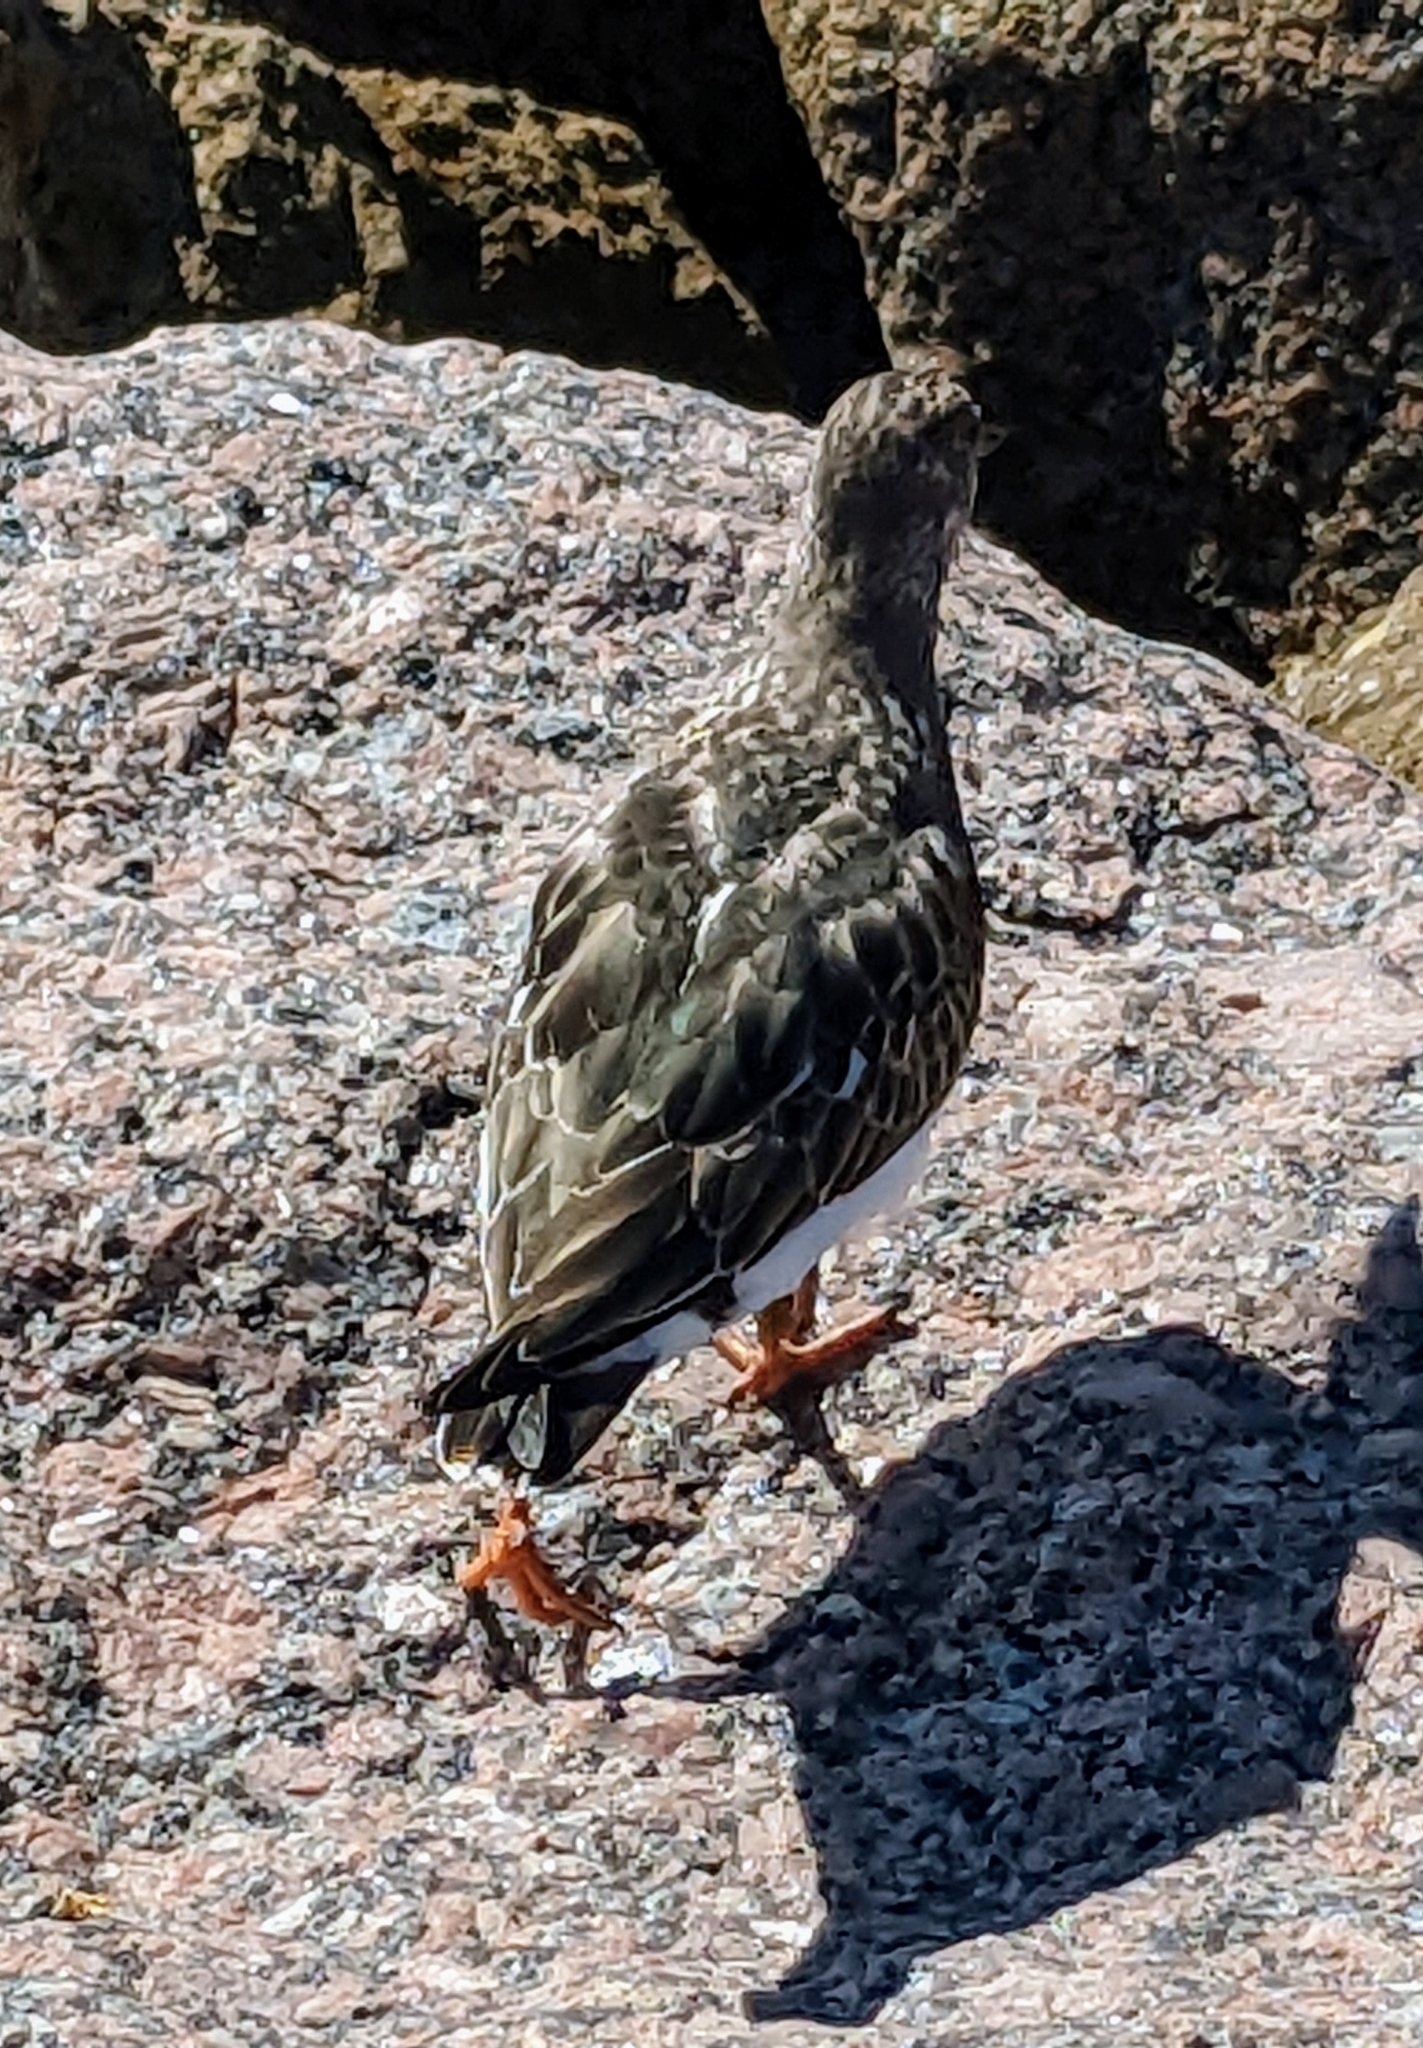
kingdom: Animalia
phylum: Chordata
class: Aves
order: Charadriiformes
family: Scolopacidae
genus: Arenaria
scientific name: Arenaria interpres
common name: Ruddy turnstone
